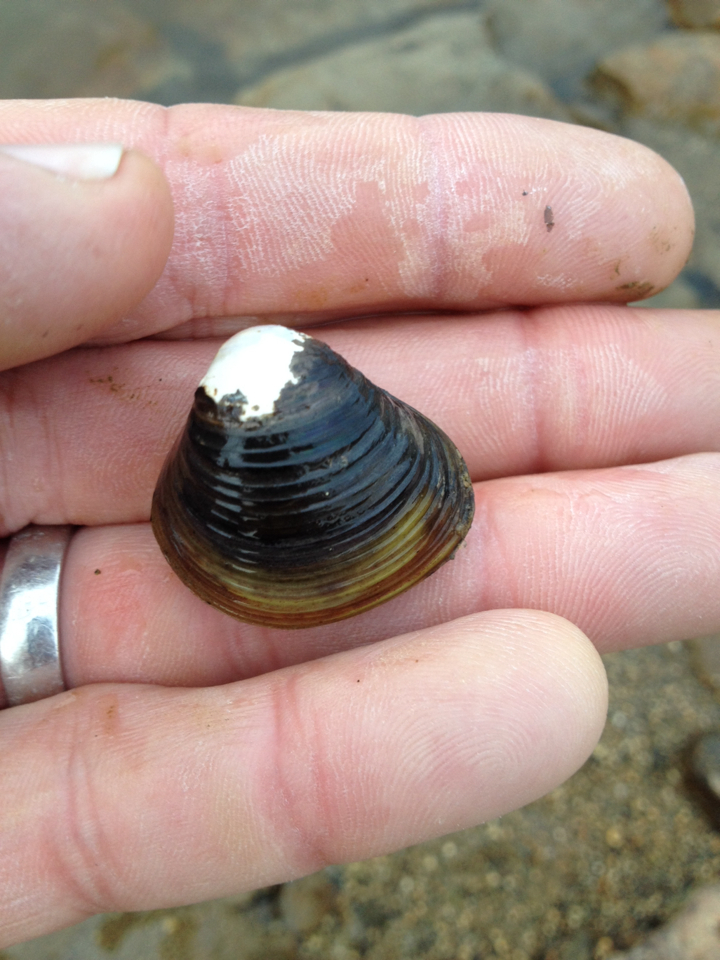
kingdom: Animalia
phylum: Mollusca
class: Bivalvia
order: Venerida
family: Cyrenidae
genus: Corbicula
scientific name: Corbicula fluminea
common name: Asian clam
